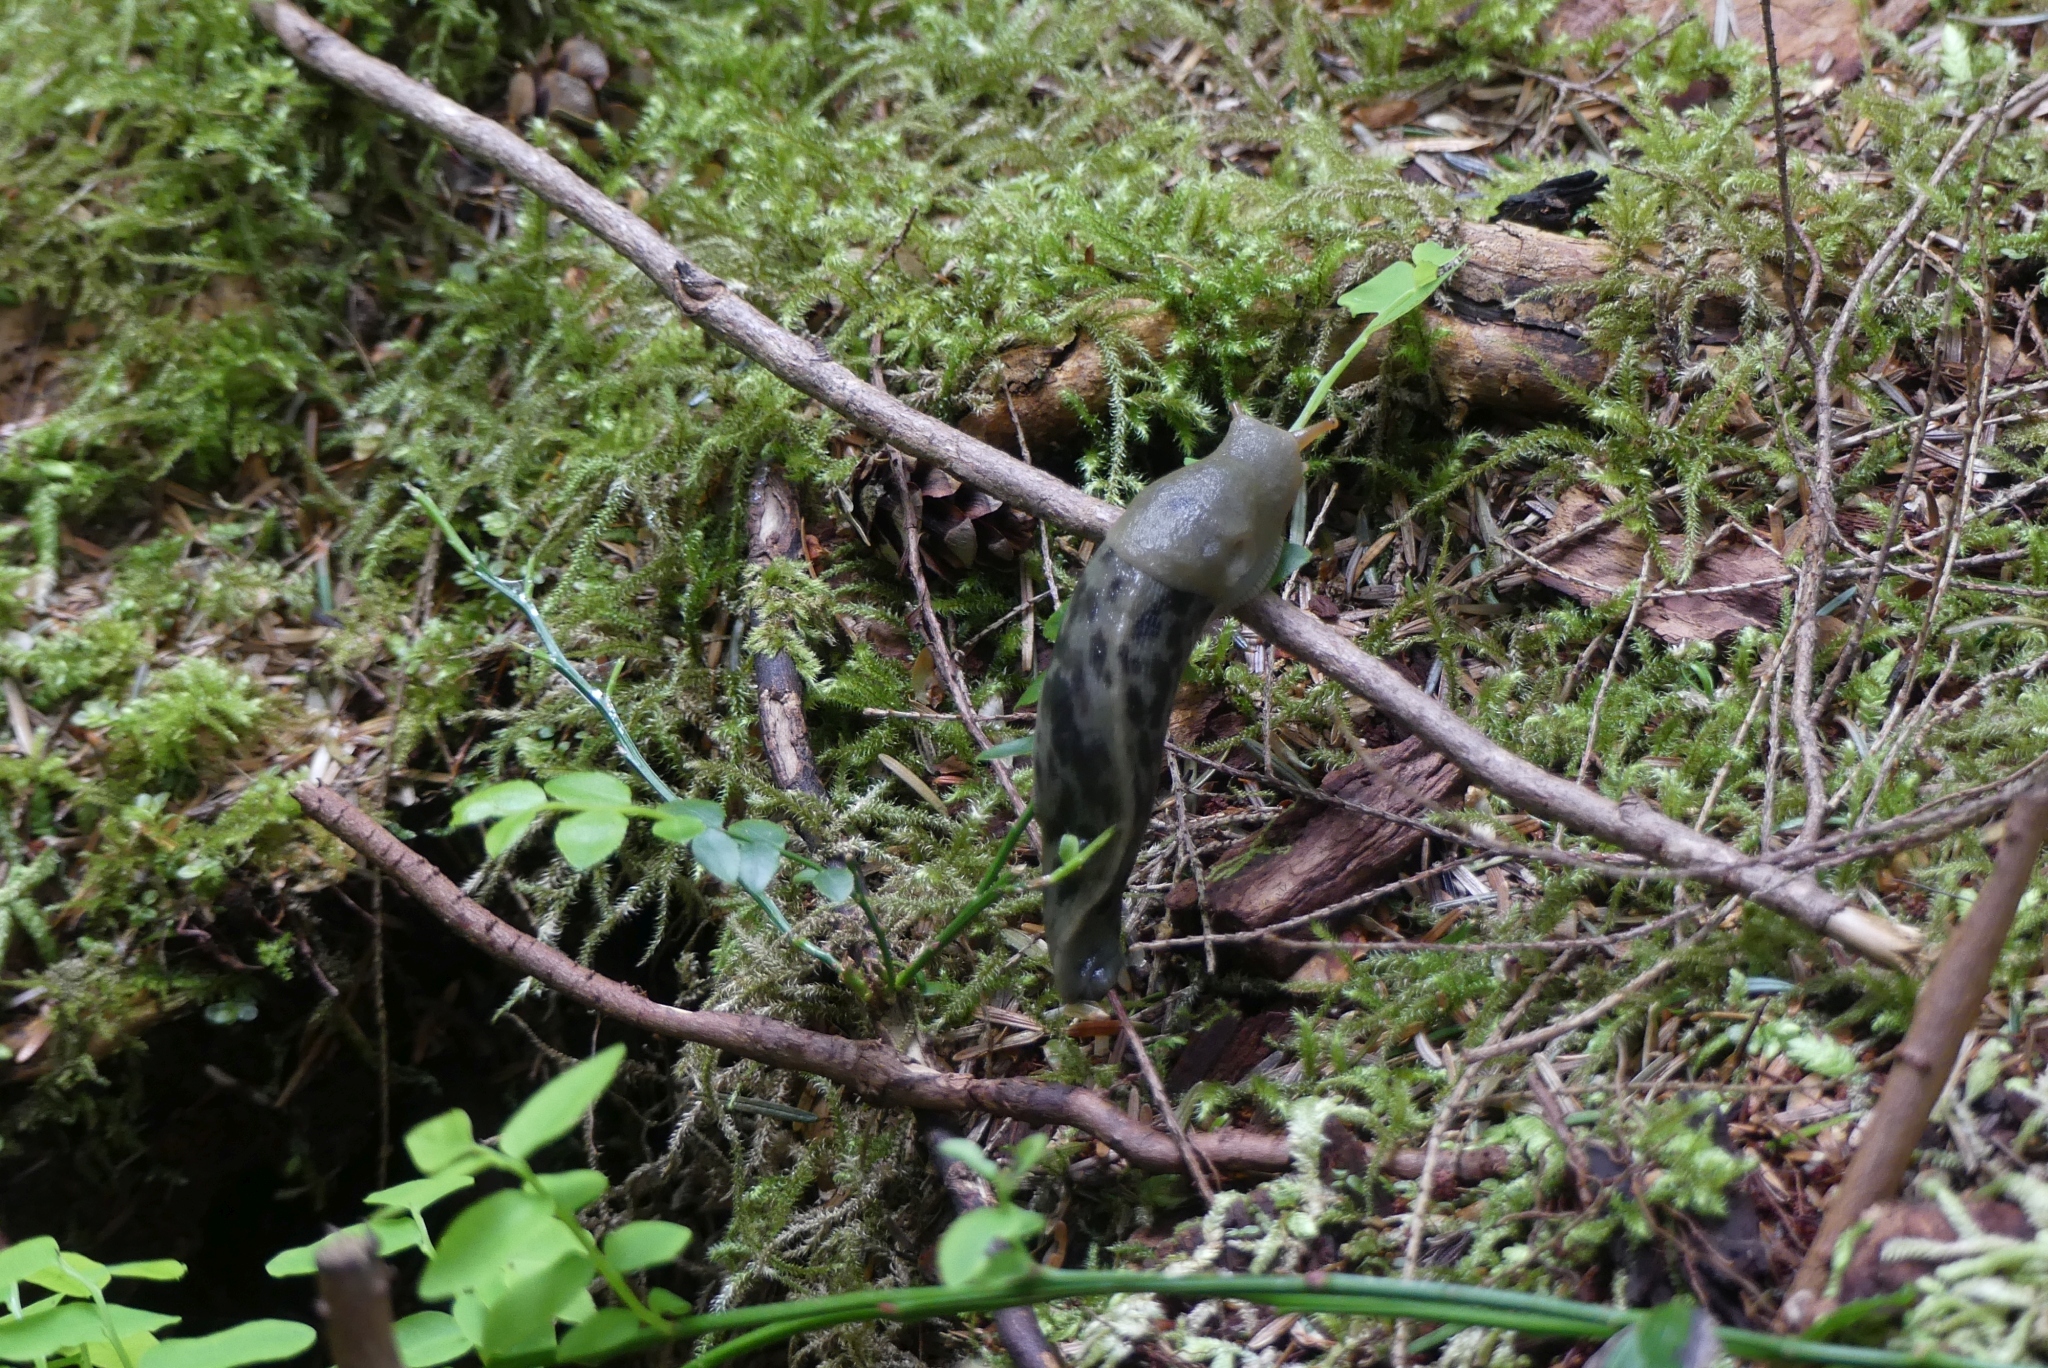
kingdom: Animalia
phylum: Mollusca
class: Gastropoda
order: Stylommatophora
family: Ariolimacidae
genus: Ariolimax
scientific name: Ariolimax columbianus
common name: Pacific banana slug
